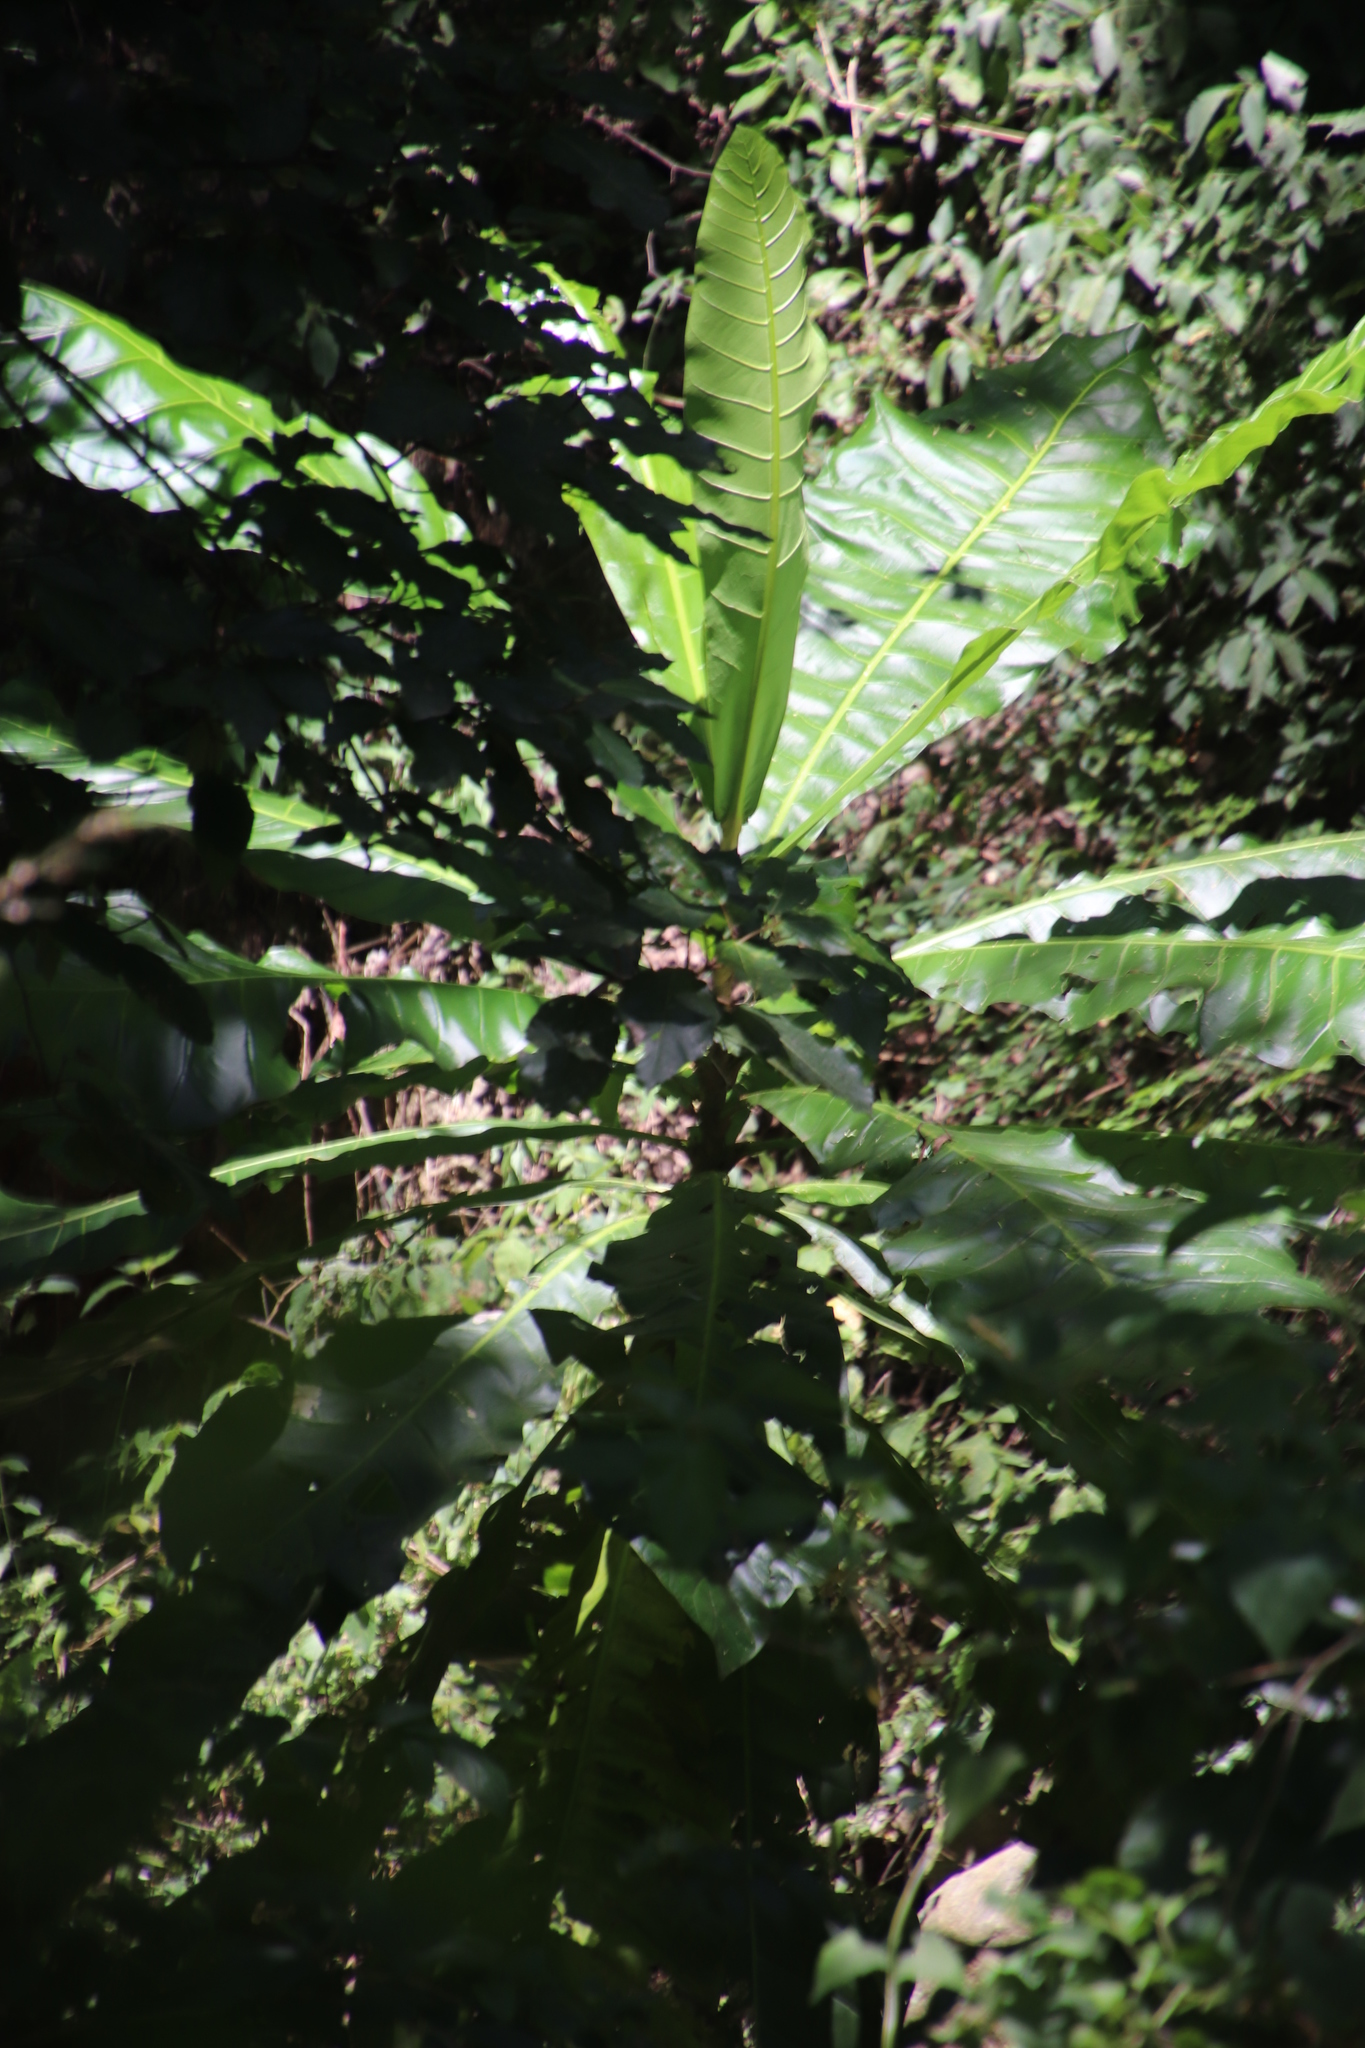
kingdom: Plantae
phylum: Tracheophyta
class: Magnoliopsida
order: Gentianales
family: Gentianaceae
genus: Anthocleista
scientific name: Anthocleista grandiflora
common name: Forest big-leaf
